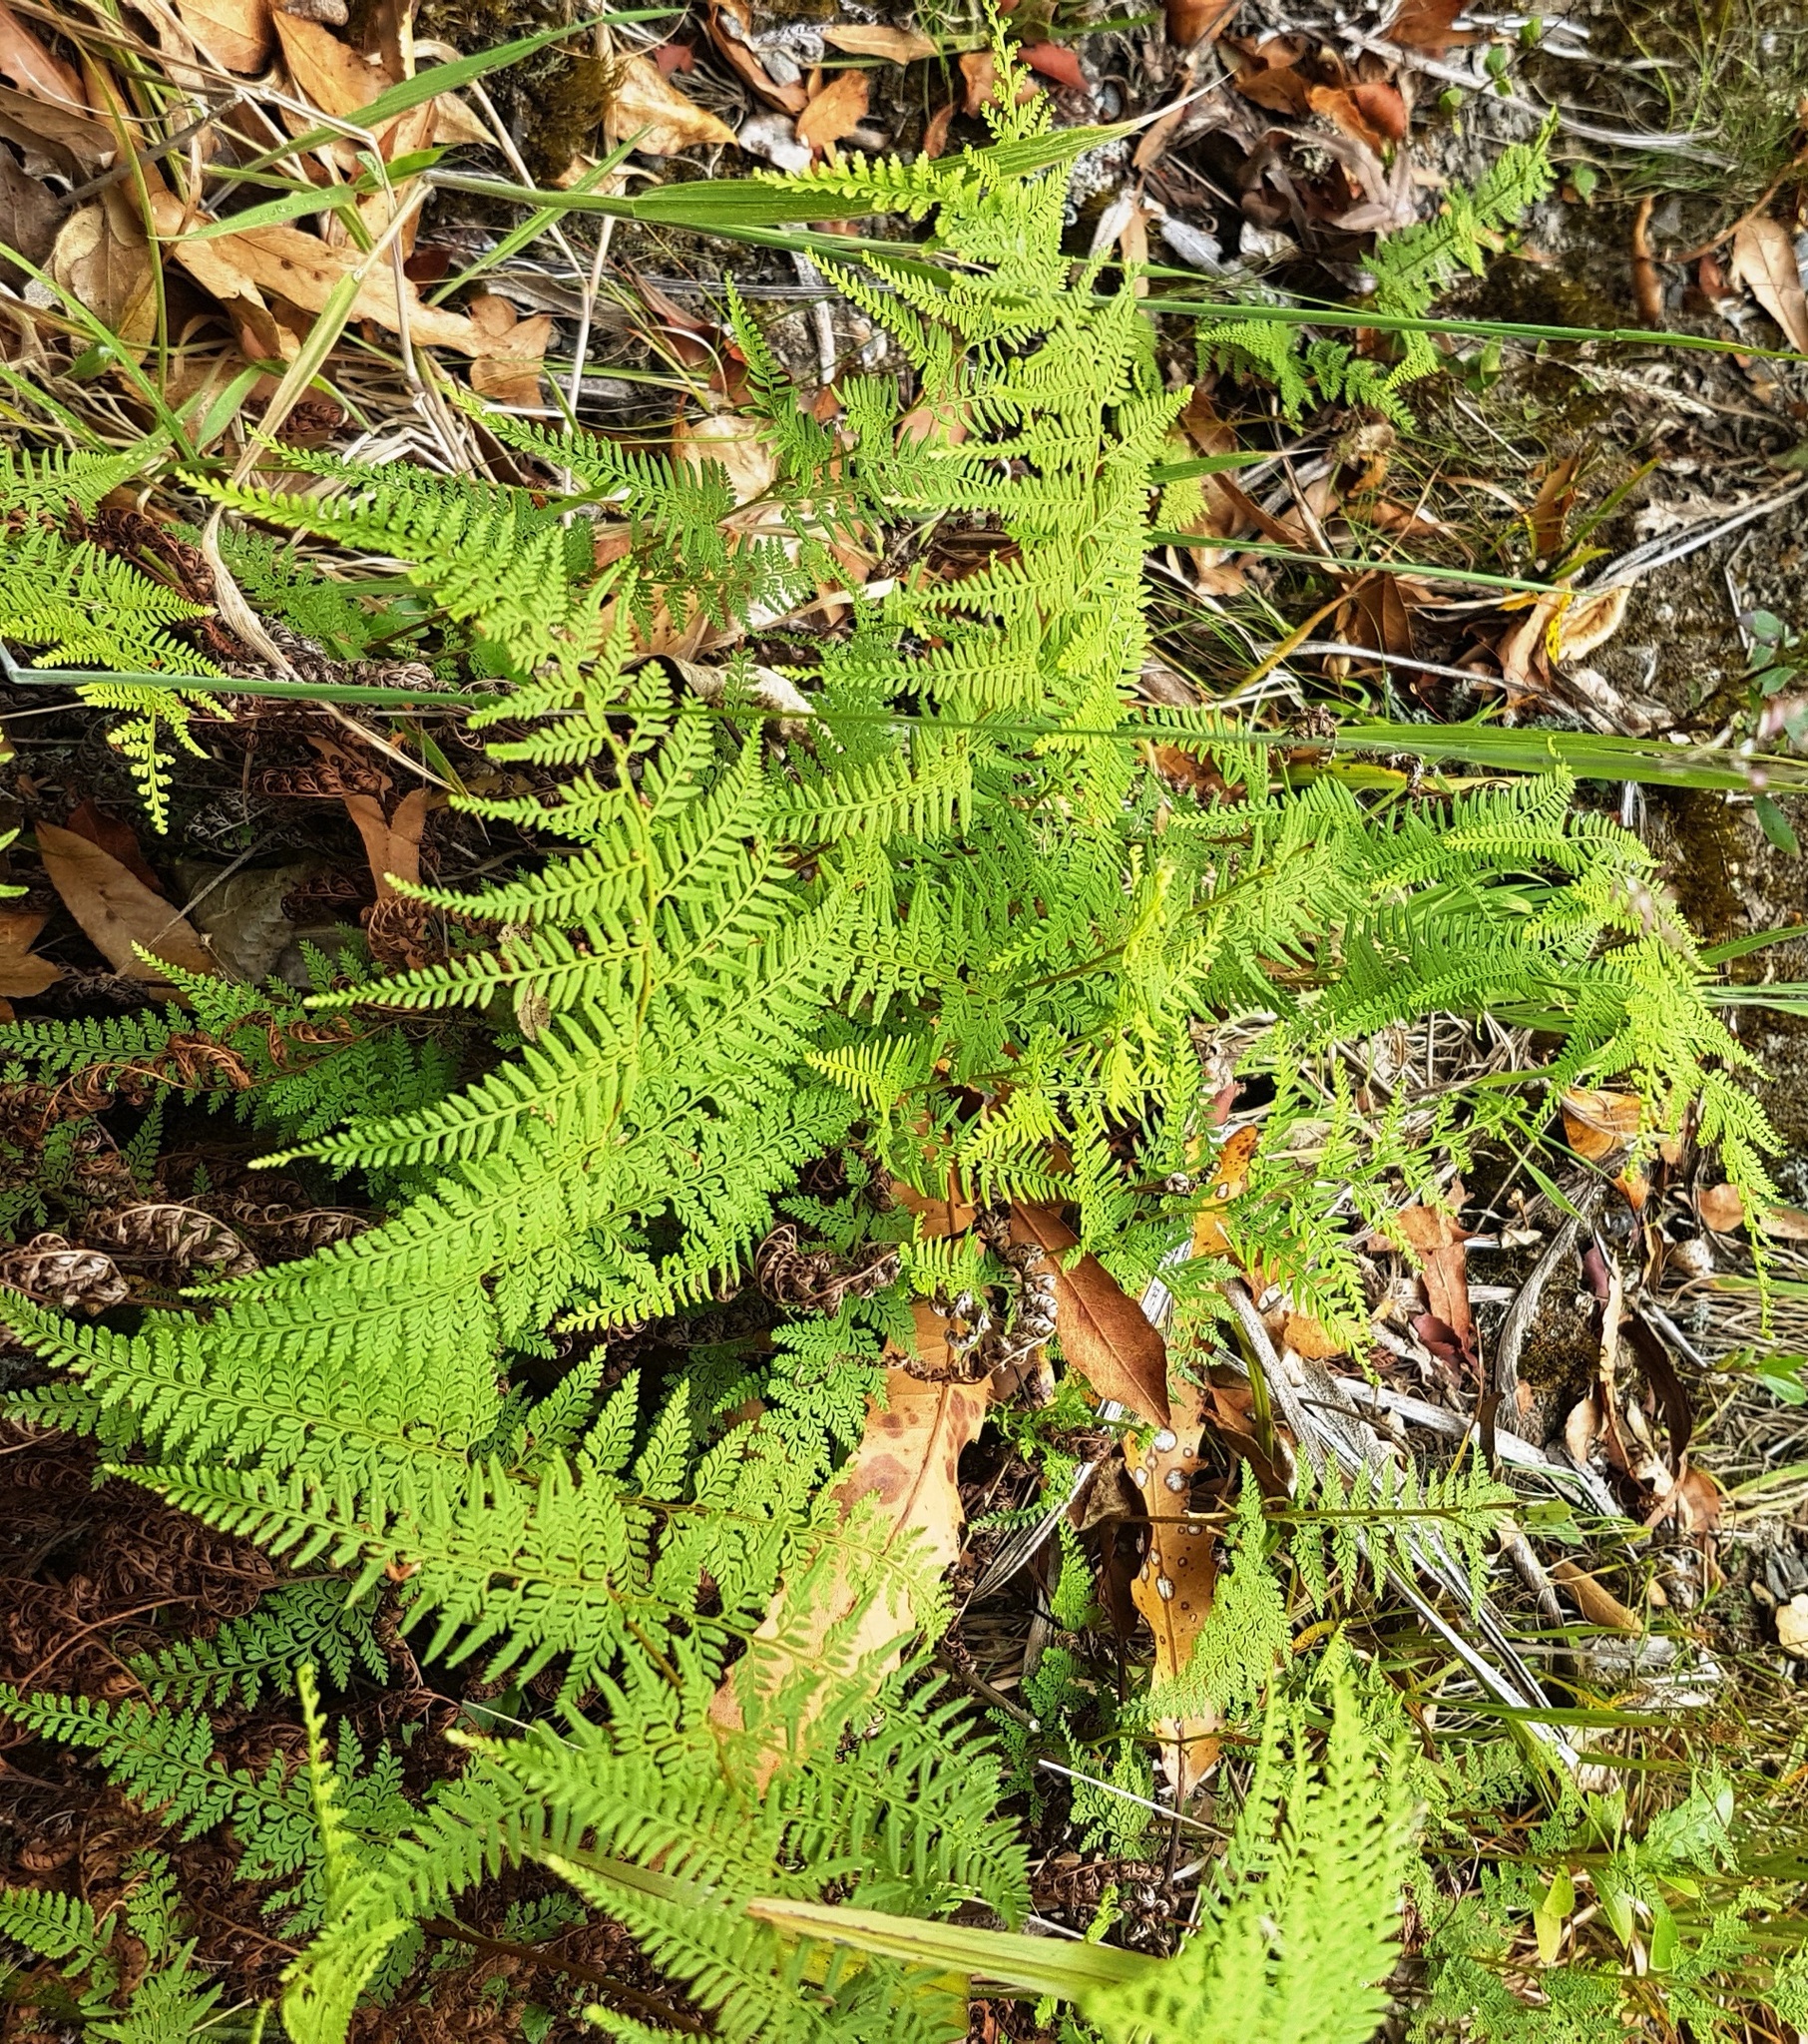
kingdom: Plantae
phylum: Tracheophyta
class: Polypodiopsida
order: Polypodiales
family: Dennstaedtiaceae
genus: Paesia
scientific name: Paesia scaberula
